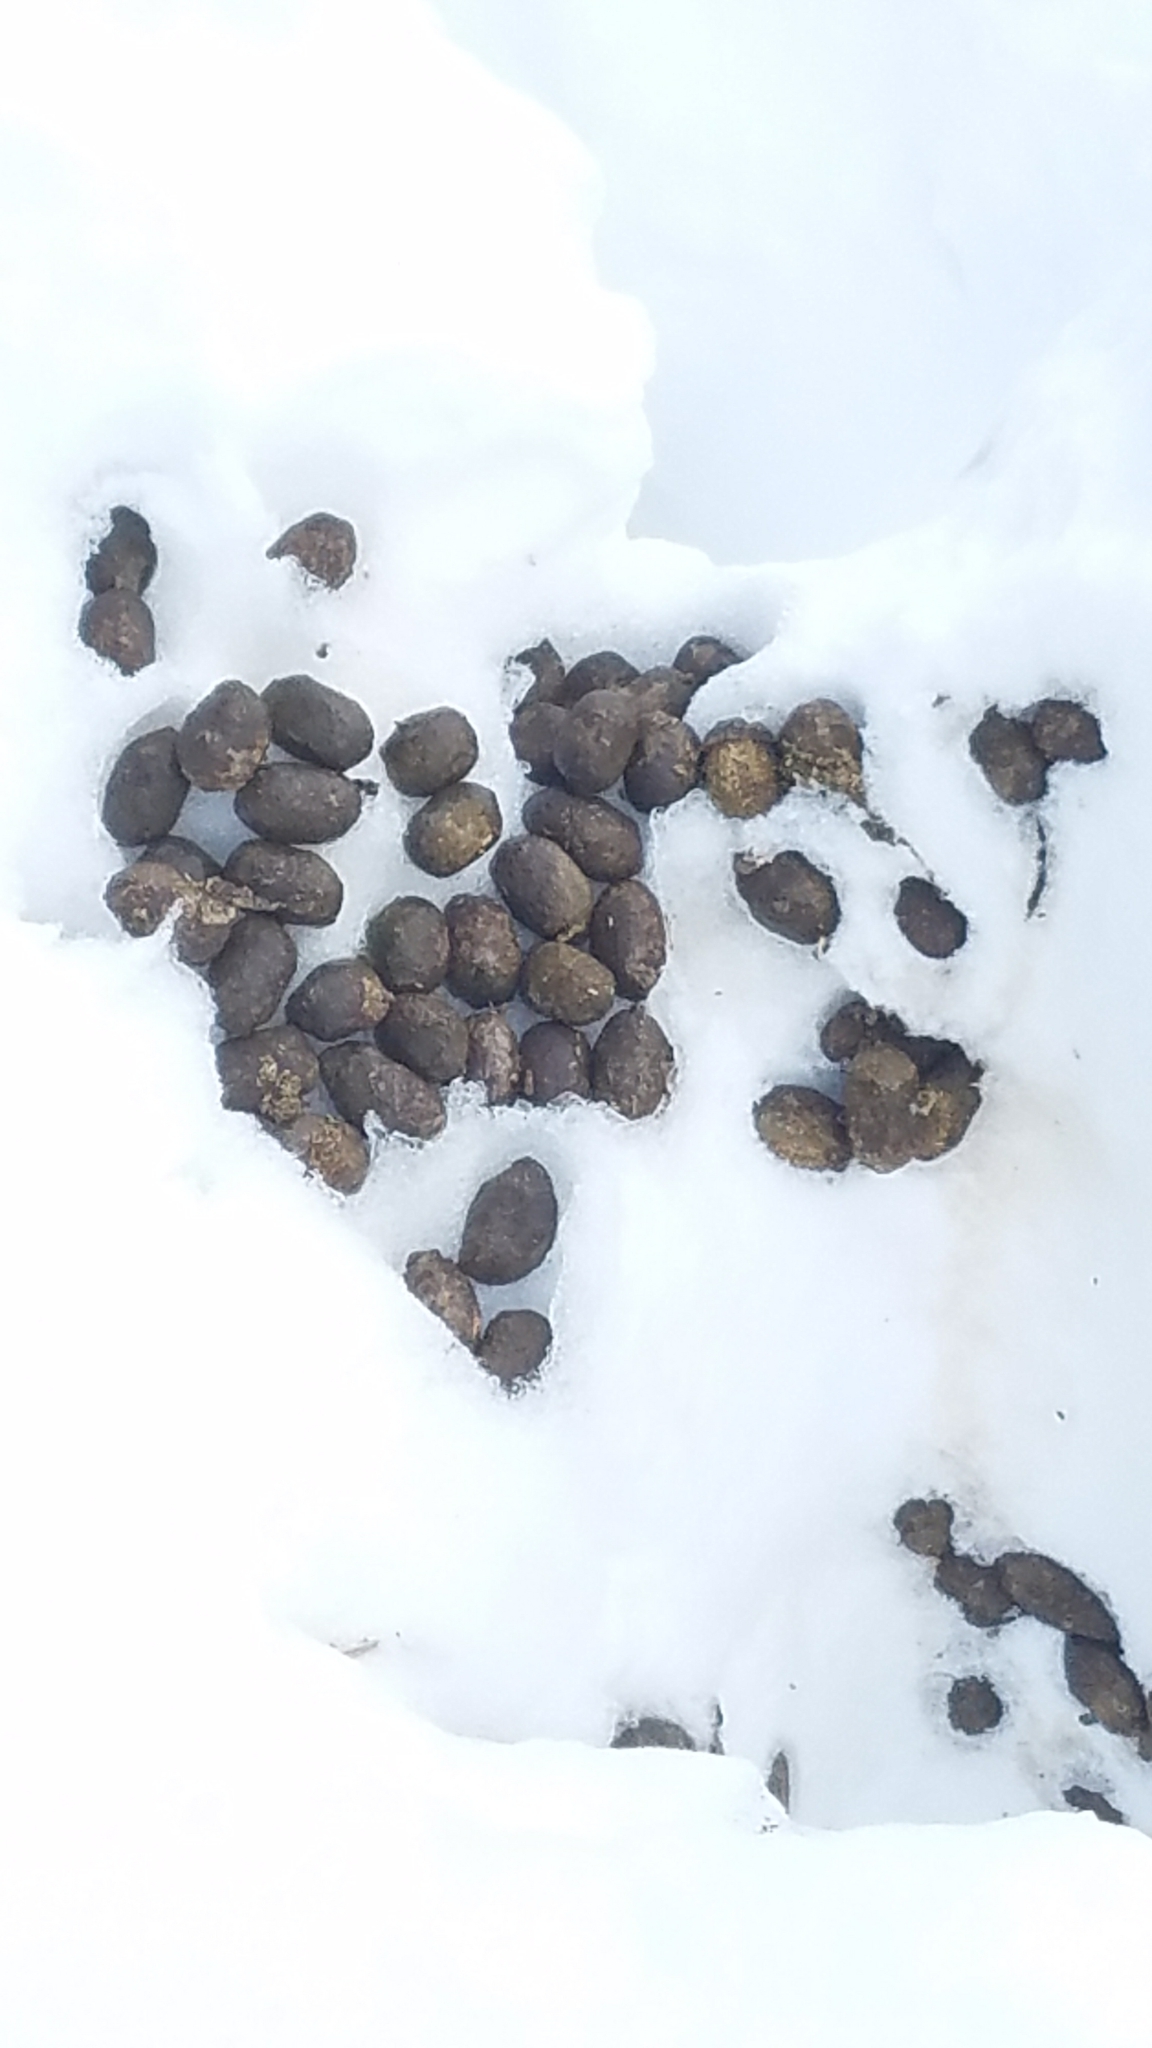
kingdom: Animalia
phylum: Chordata
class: Mammalia
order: Artiodactyla
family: Cervidae
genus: Alces
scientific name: Alces alces
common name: Moose
